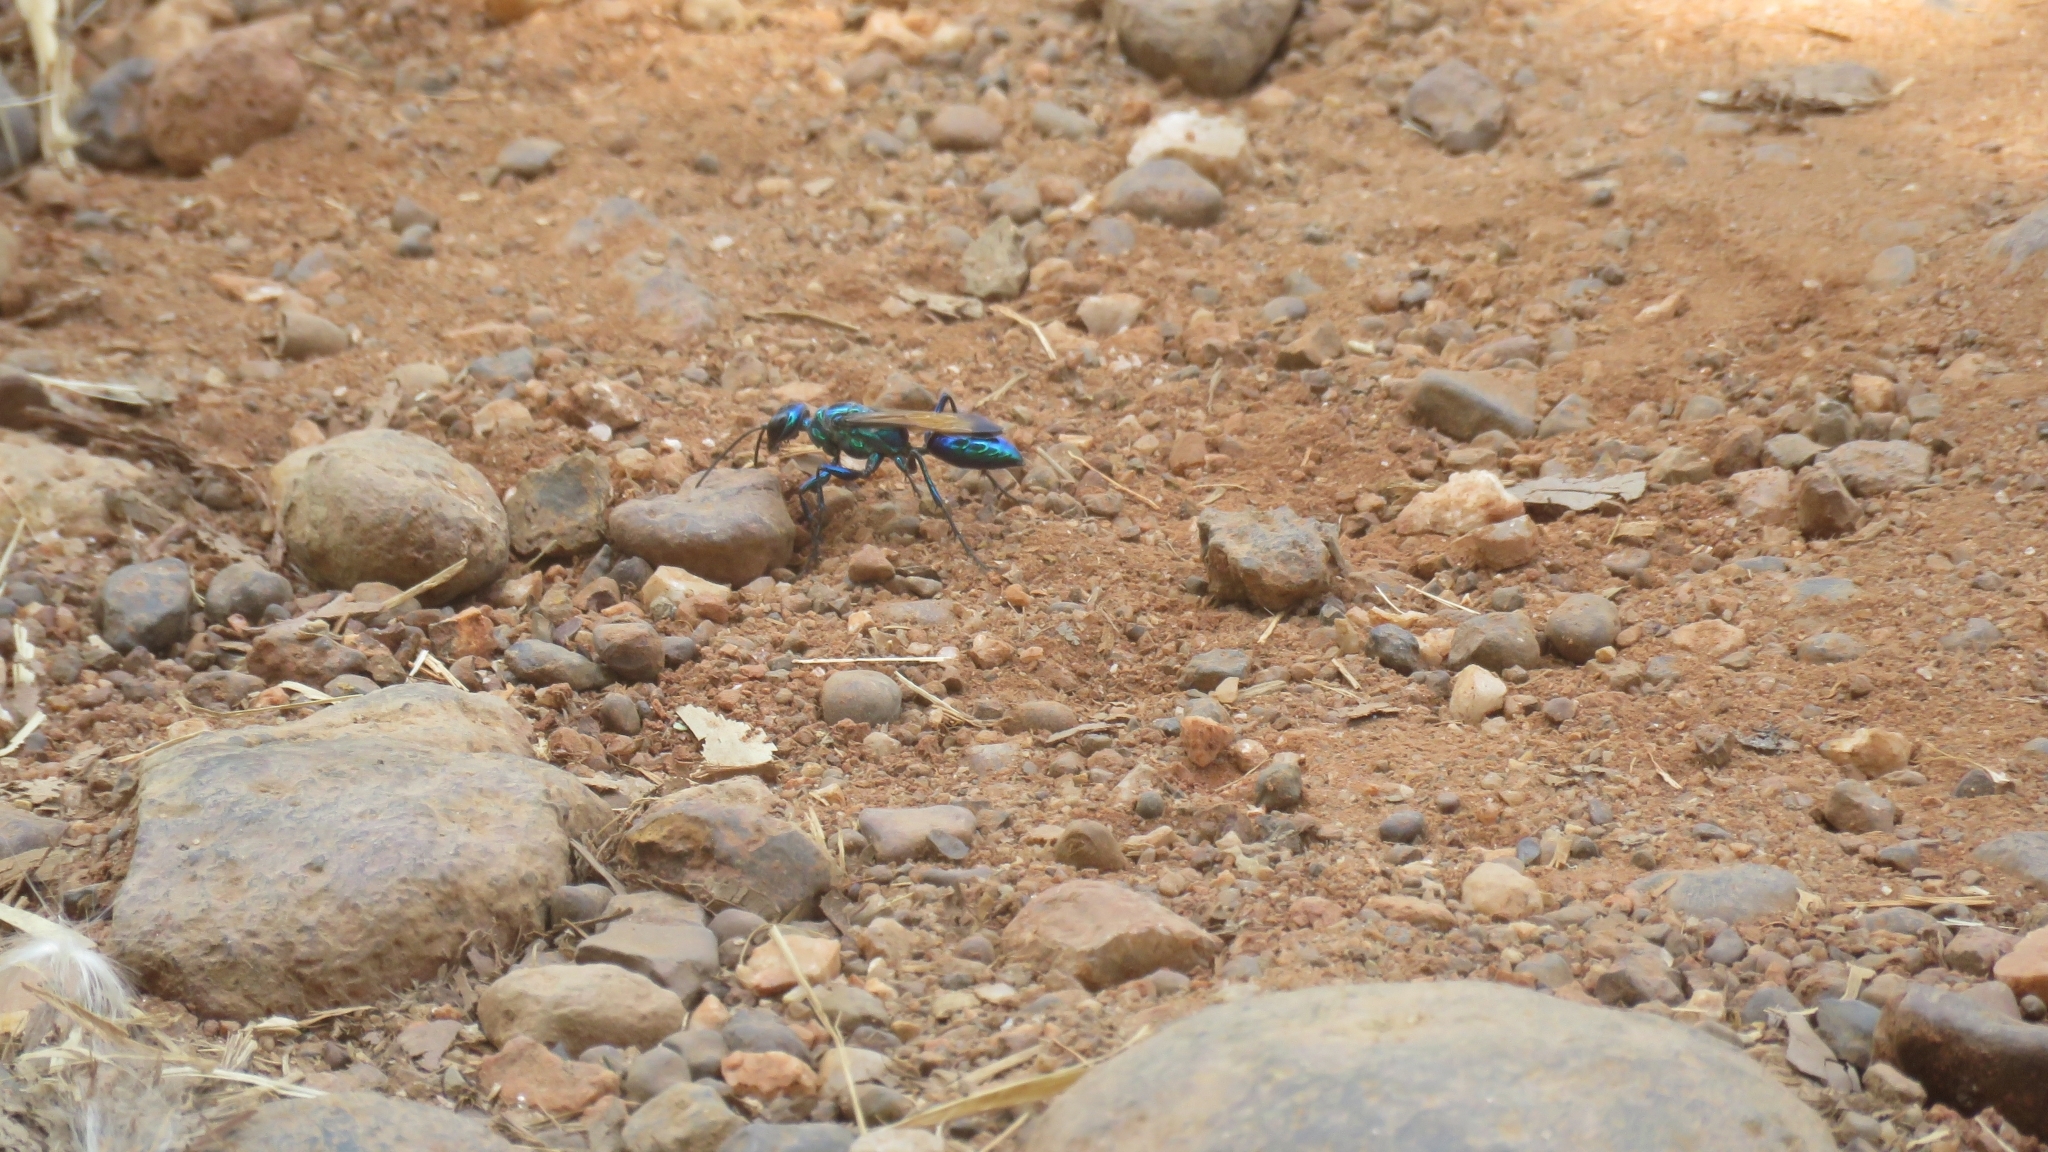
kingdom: Animalia
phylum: Arthropoda
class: Insecta
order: Hymenoptera
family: Sphecidae
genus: Chlorion
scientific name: Chlorion lobatum
